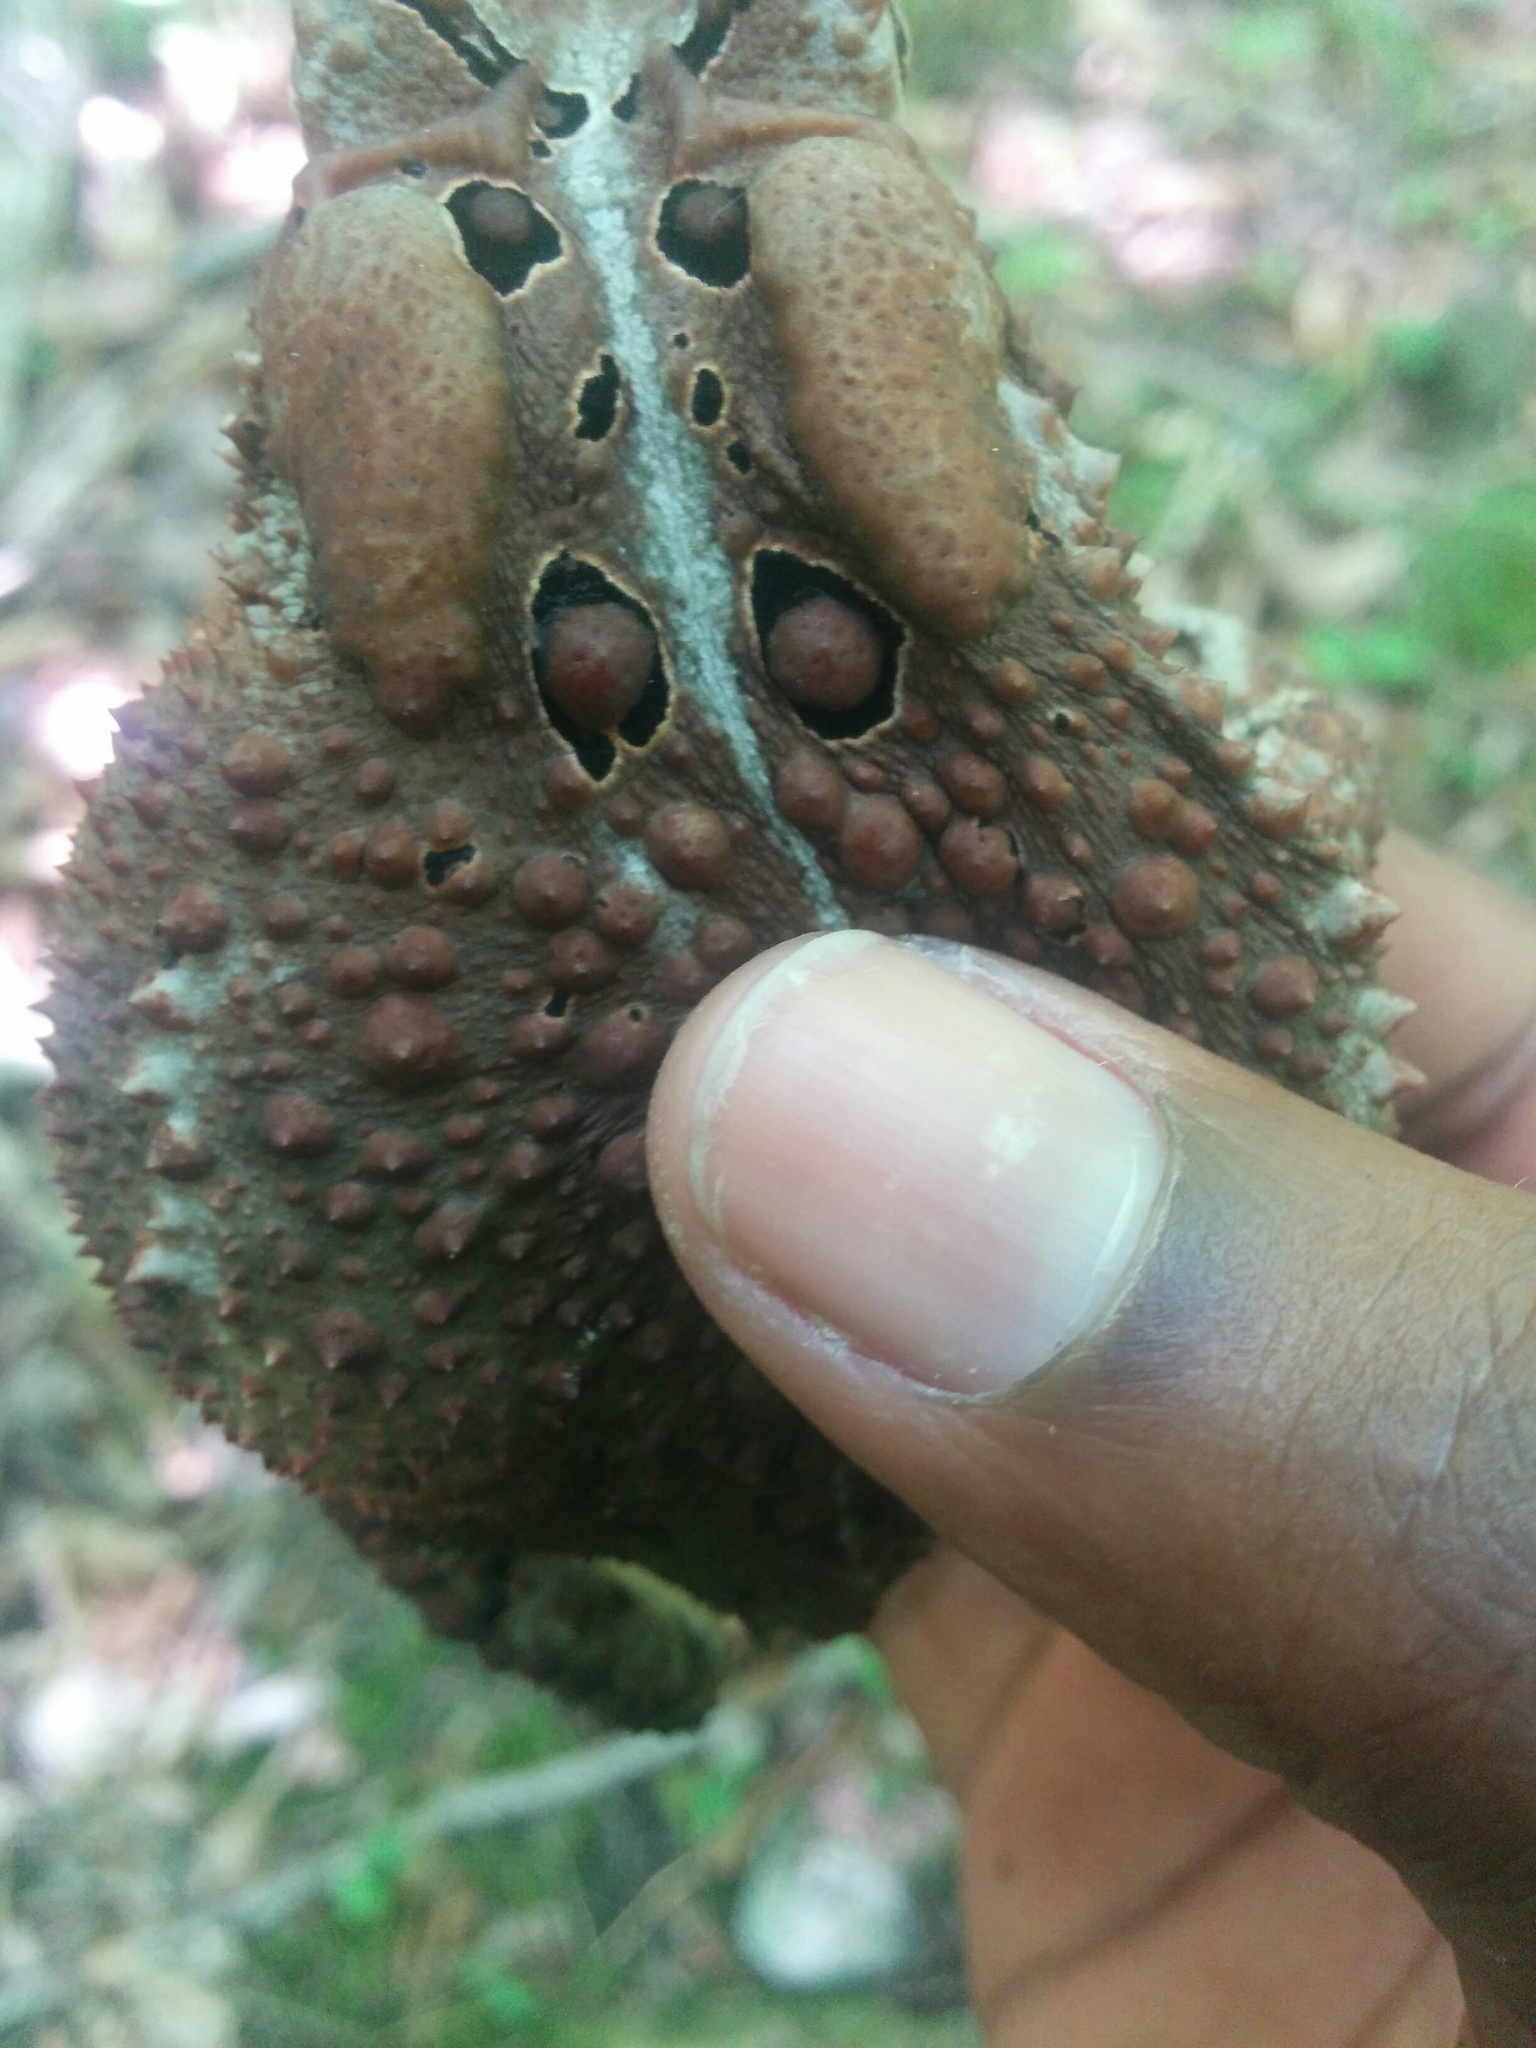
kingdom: Animalia
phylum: Chordata
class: Amphibia
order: Anura
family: Bufonidae
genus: Anaxyrus
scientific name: Anaxyrus americanus
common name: American toad
